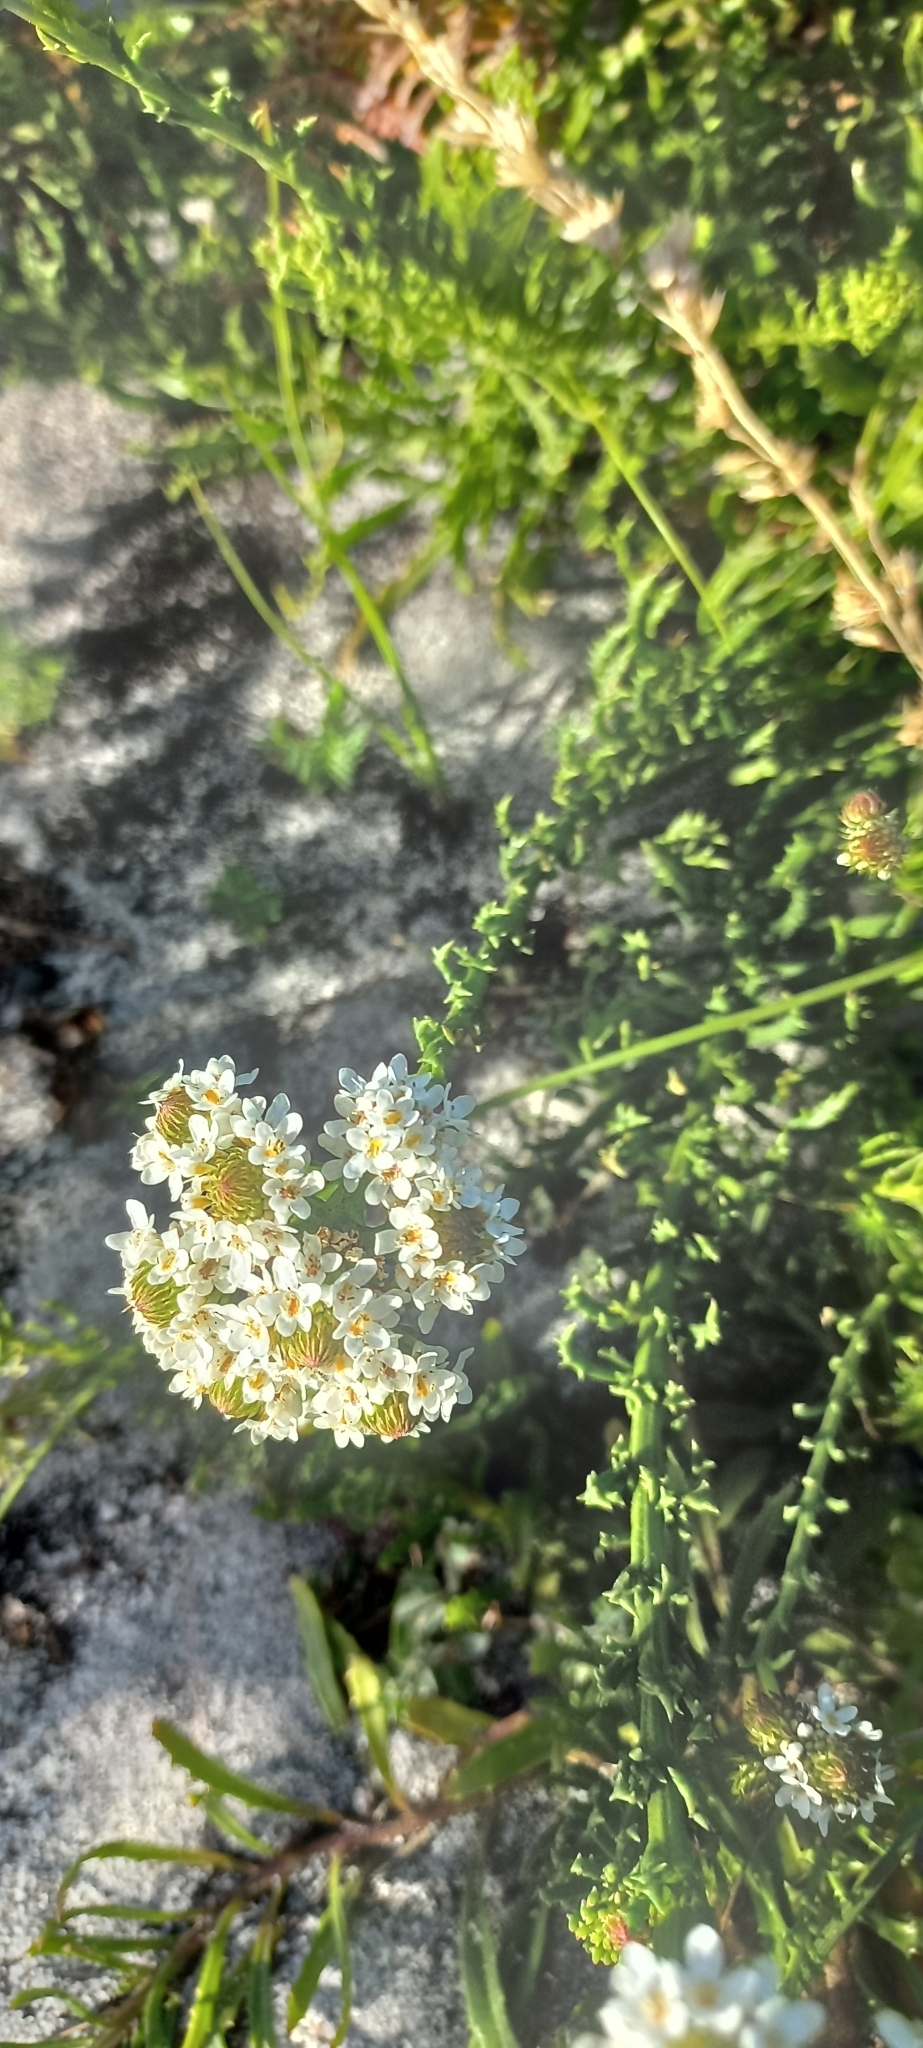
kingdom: Plantae
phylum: Tracheophyta
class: Magnoliopsida
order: Lamiales
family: Scrophulariaceae
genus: Pseudoselago
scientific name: Pseudoselago serrata
